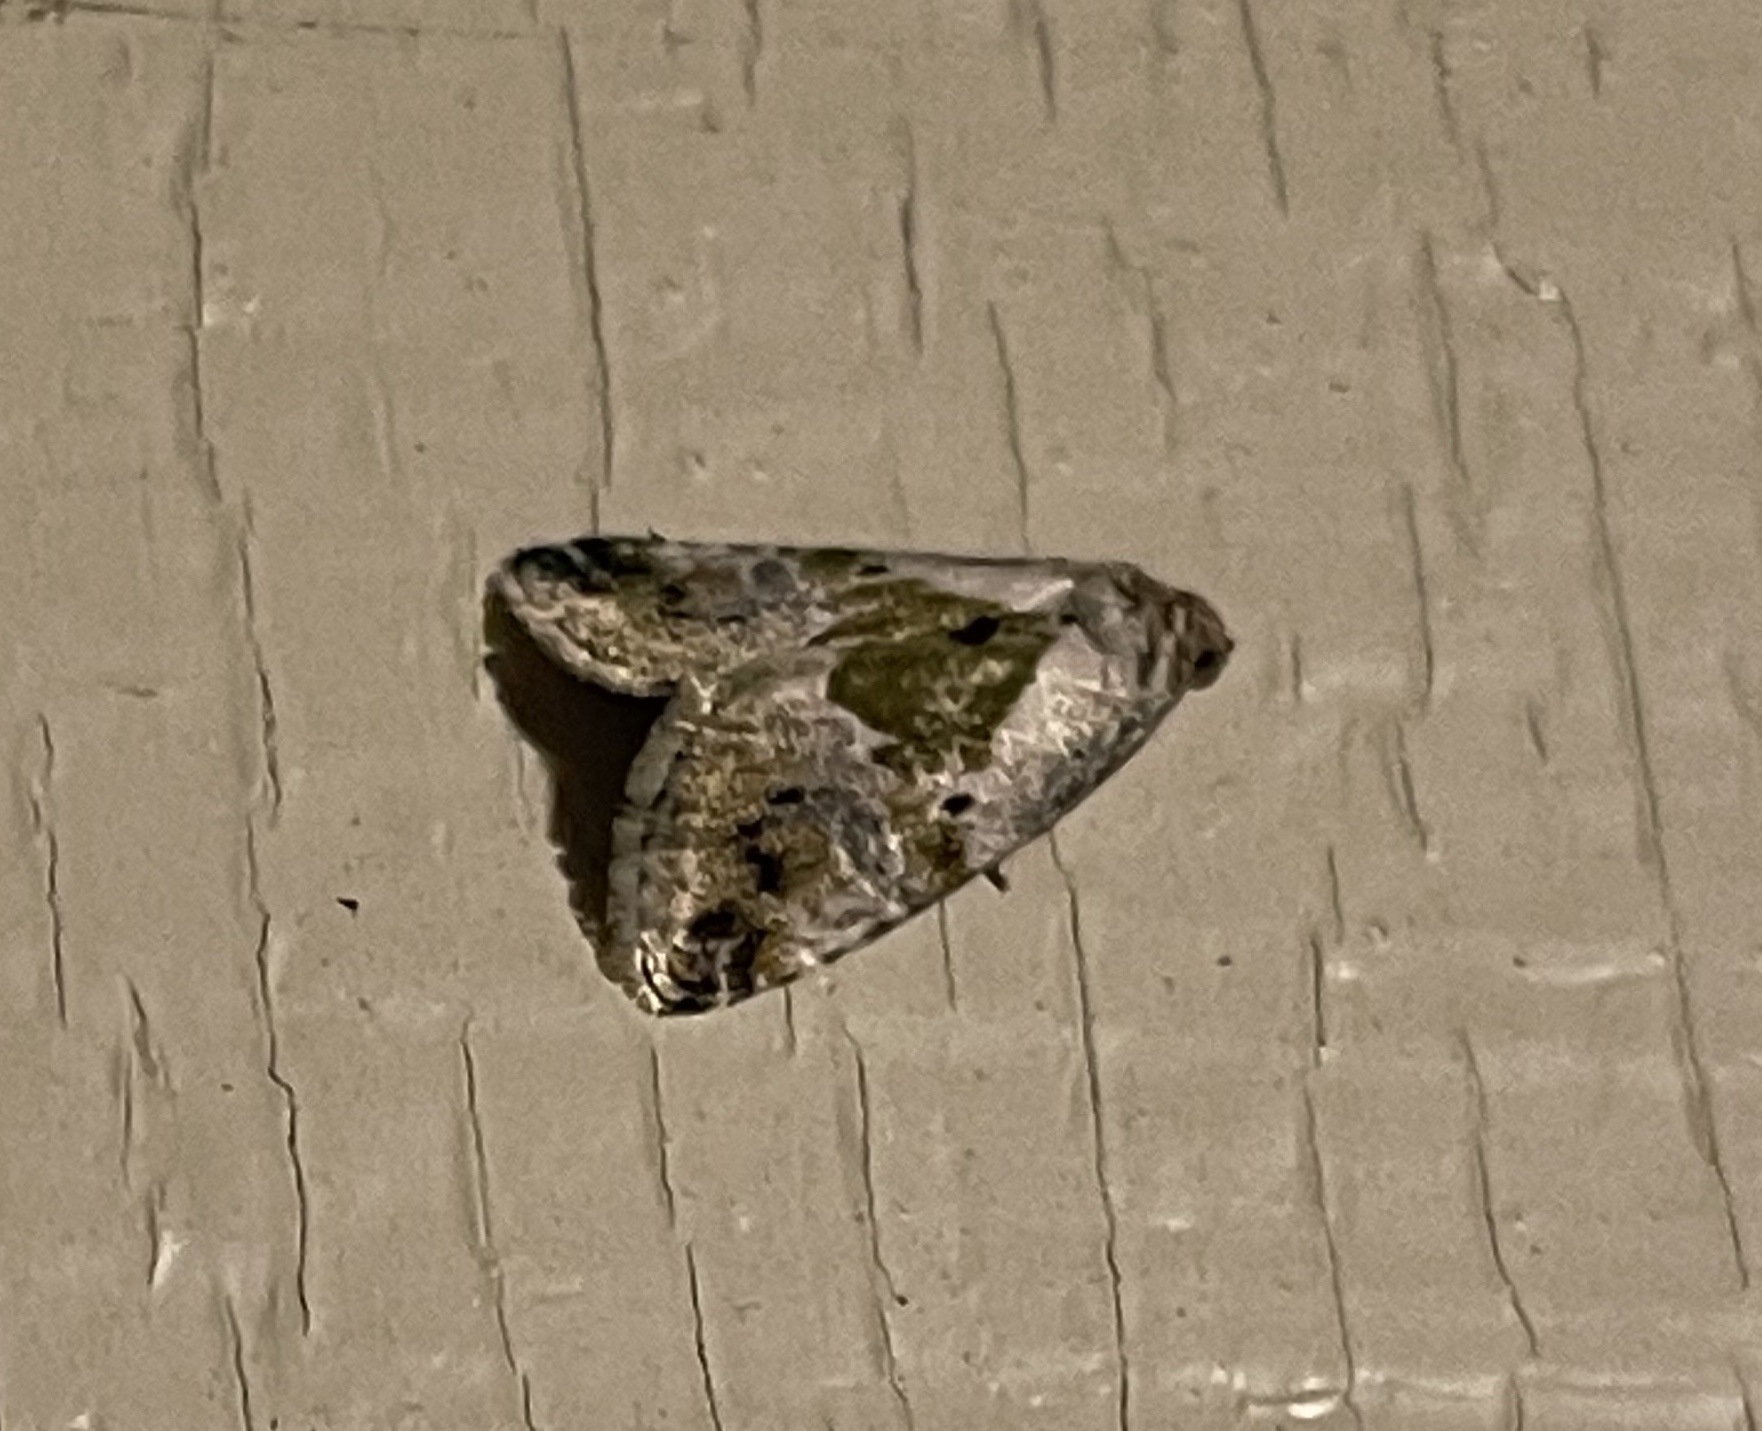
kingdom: Animalia
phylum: Arthropoda
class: Insecta
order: Lepidoptera
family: Noctuidae
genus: Maliattha
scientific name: Maliattha synochitis
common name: Black-dotted glyph
